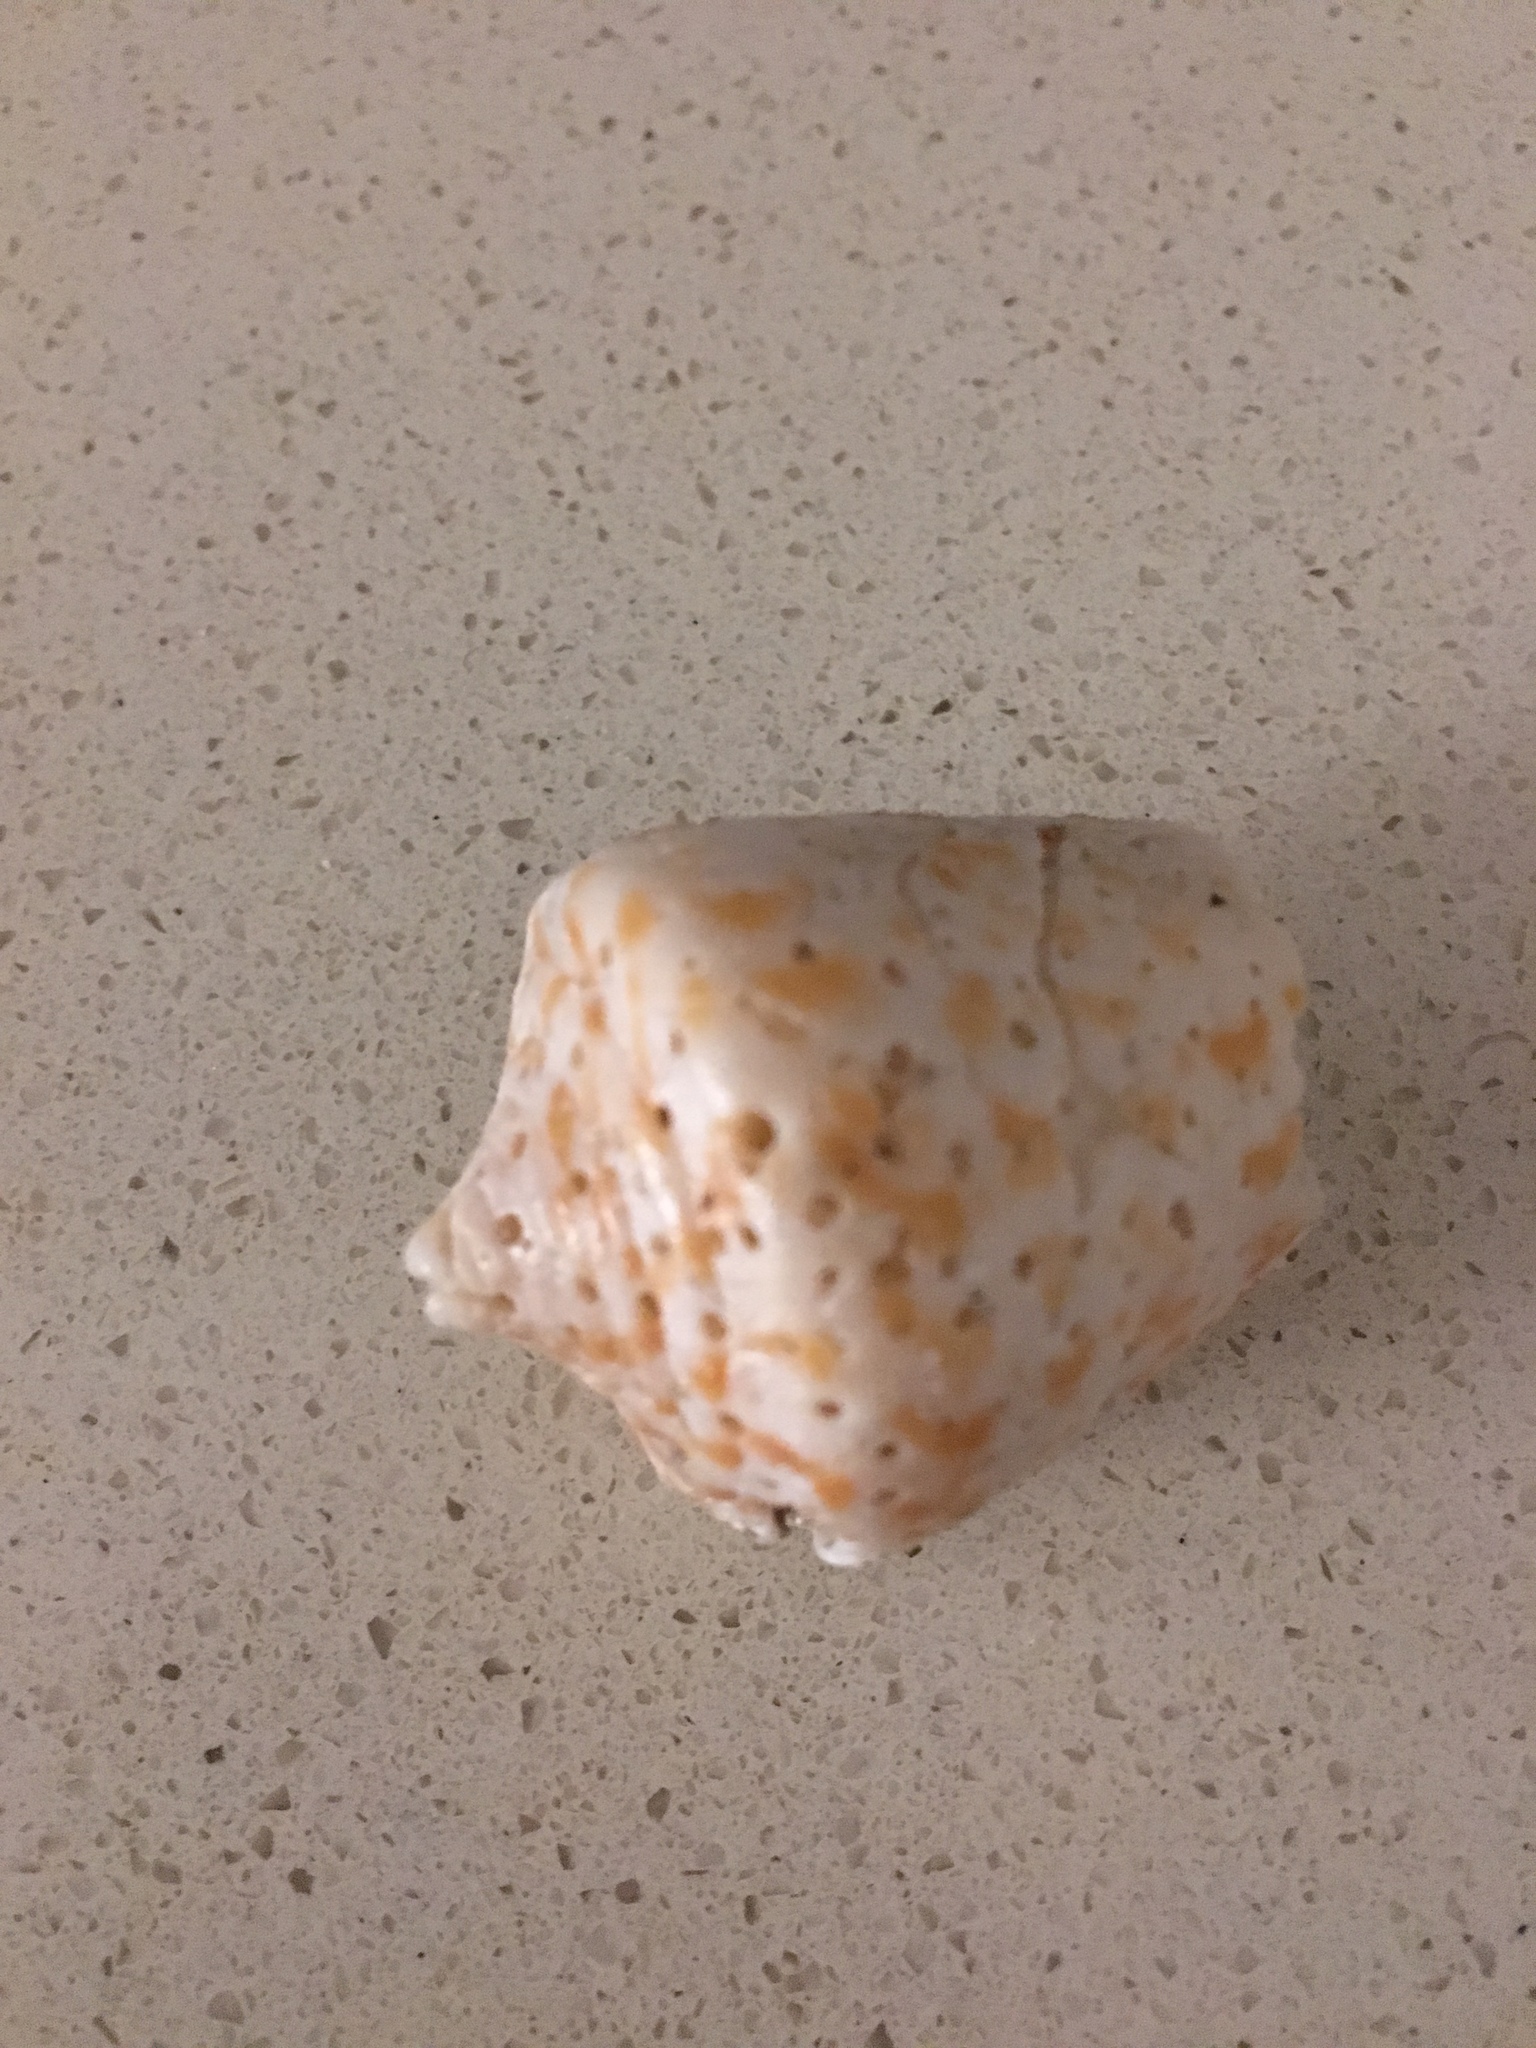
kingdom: Animalia
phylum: Mollusca
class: Gastropoda
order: Neogastropoda
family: Conidae
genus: Conus
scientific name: Conus spurius
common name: Alphabet cone
